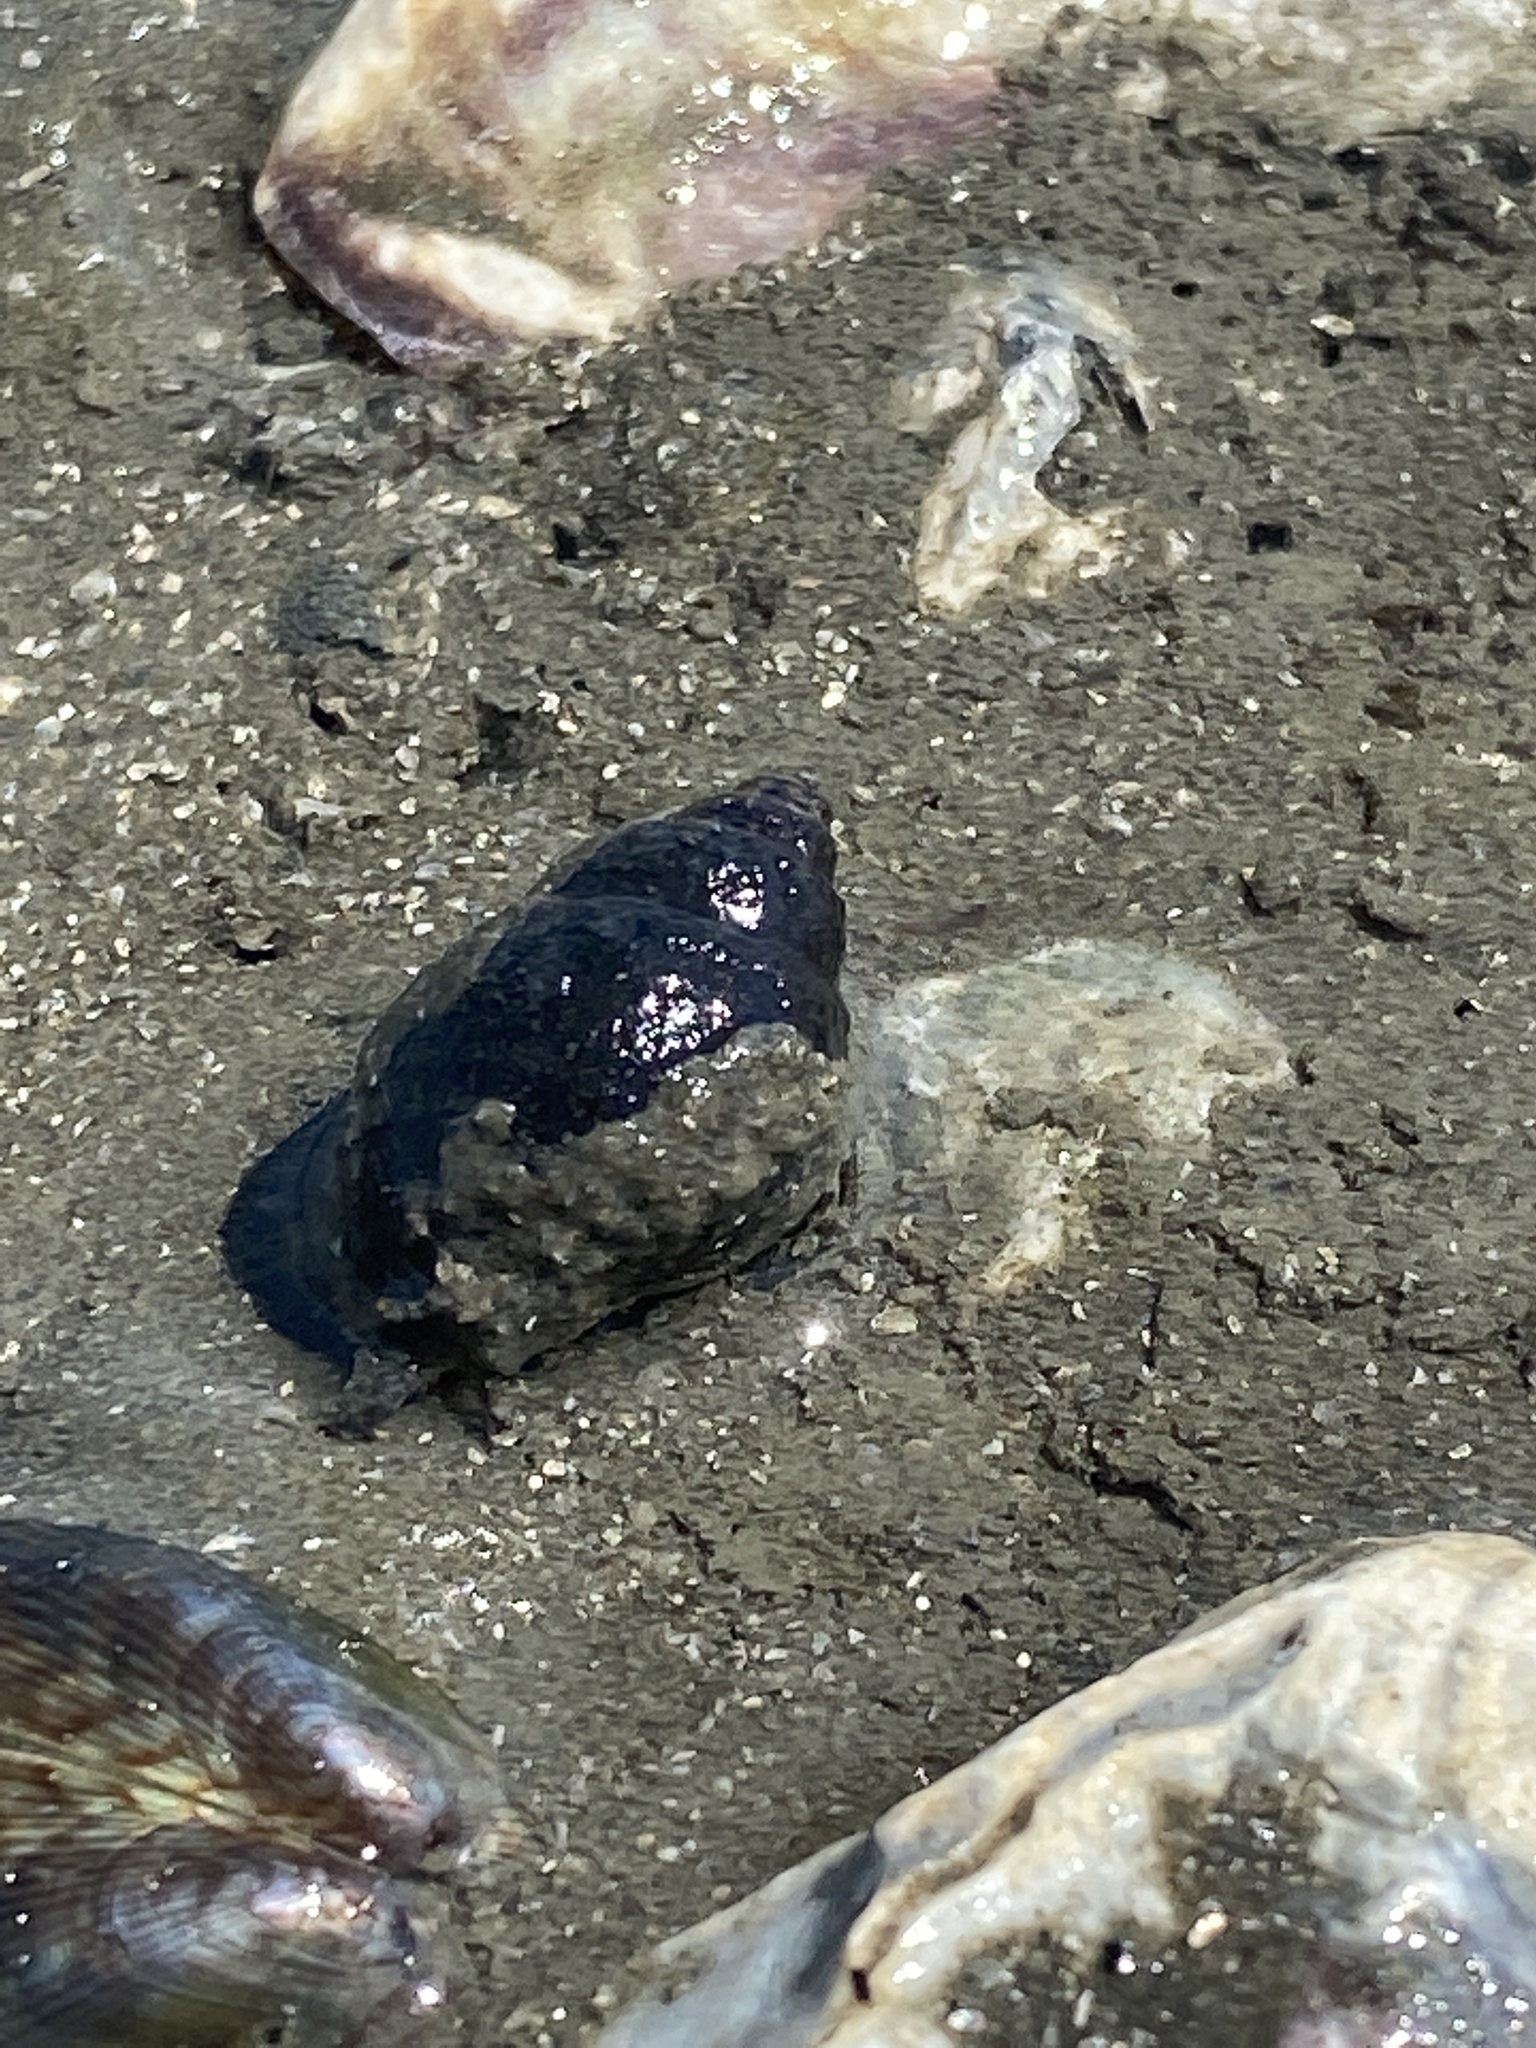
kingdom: Animalia
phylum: Mollusca
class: Gastropoda
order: Neogastropoda
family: Nassariidae
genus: Ilyanassa
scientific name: Ilyanassa obsoleta
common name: Eastern mudsnail
